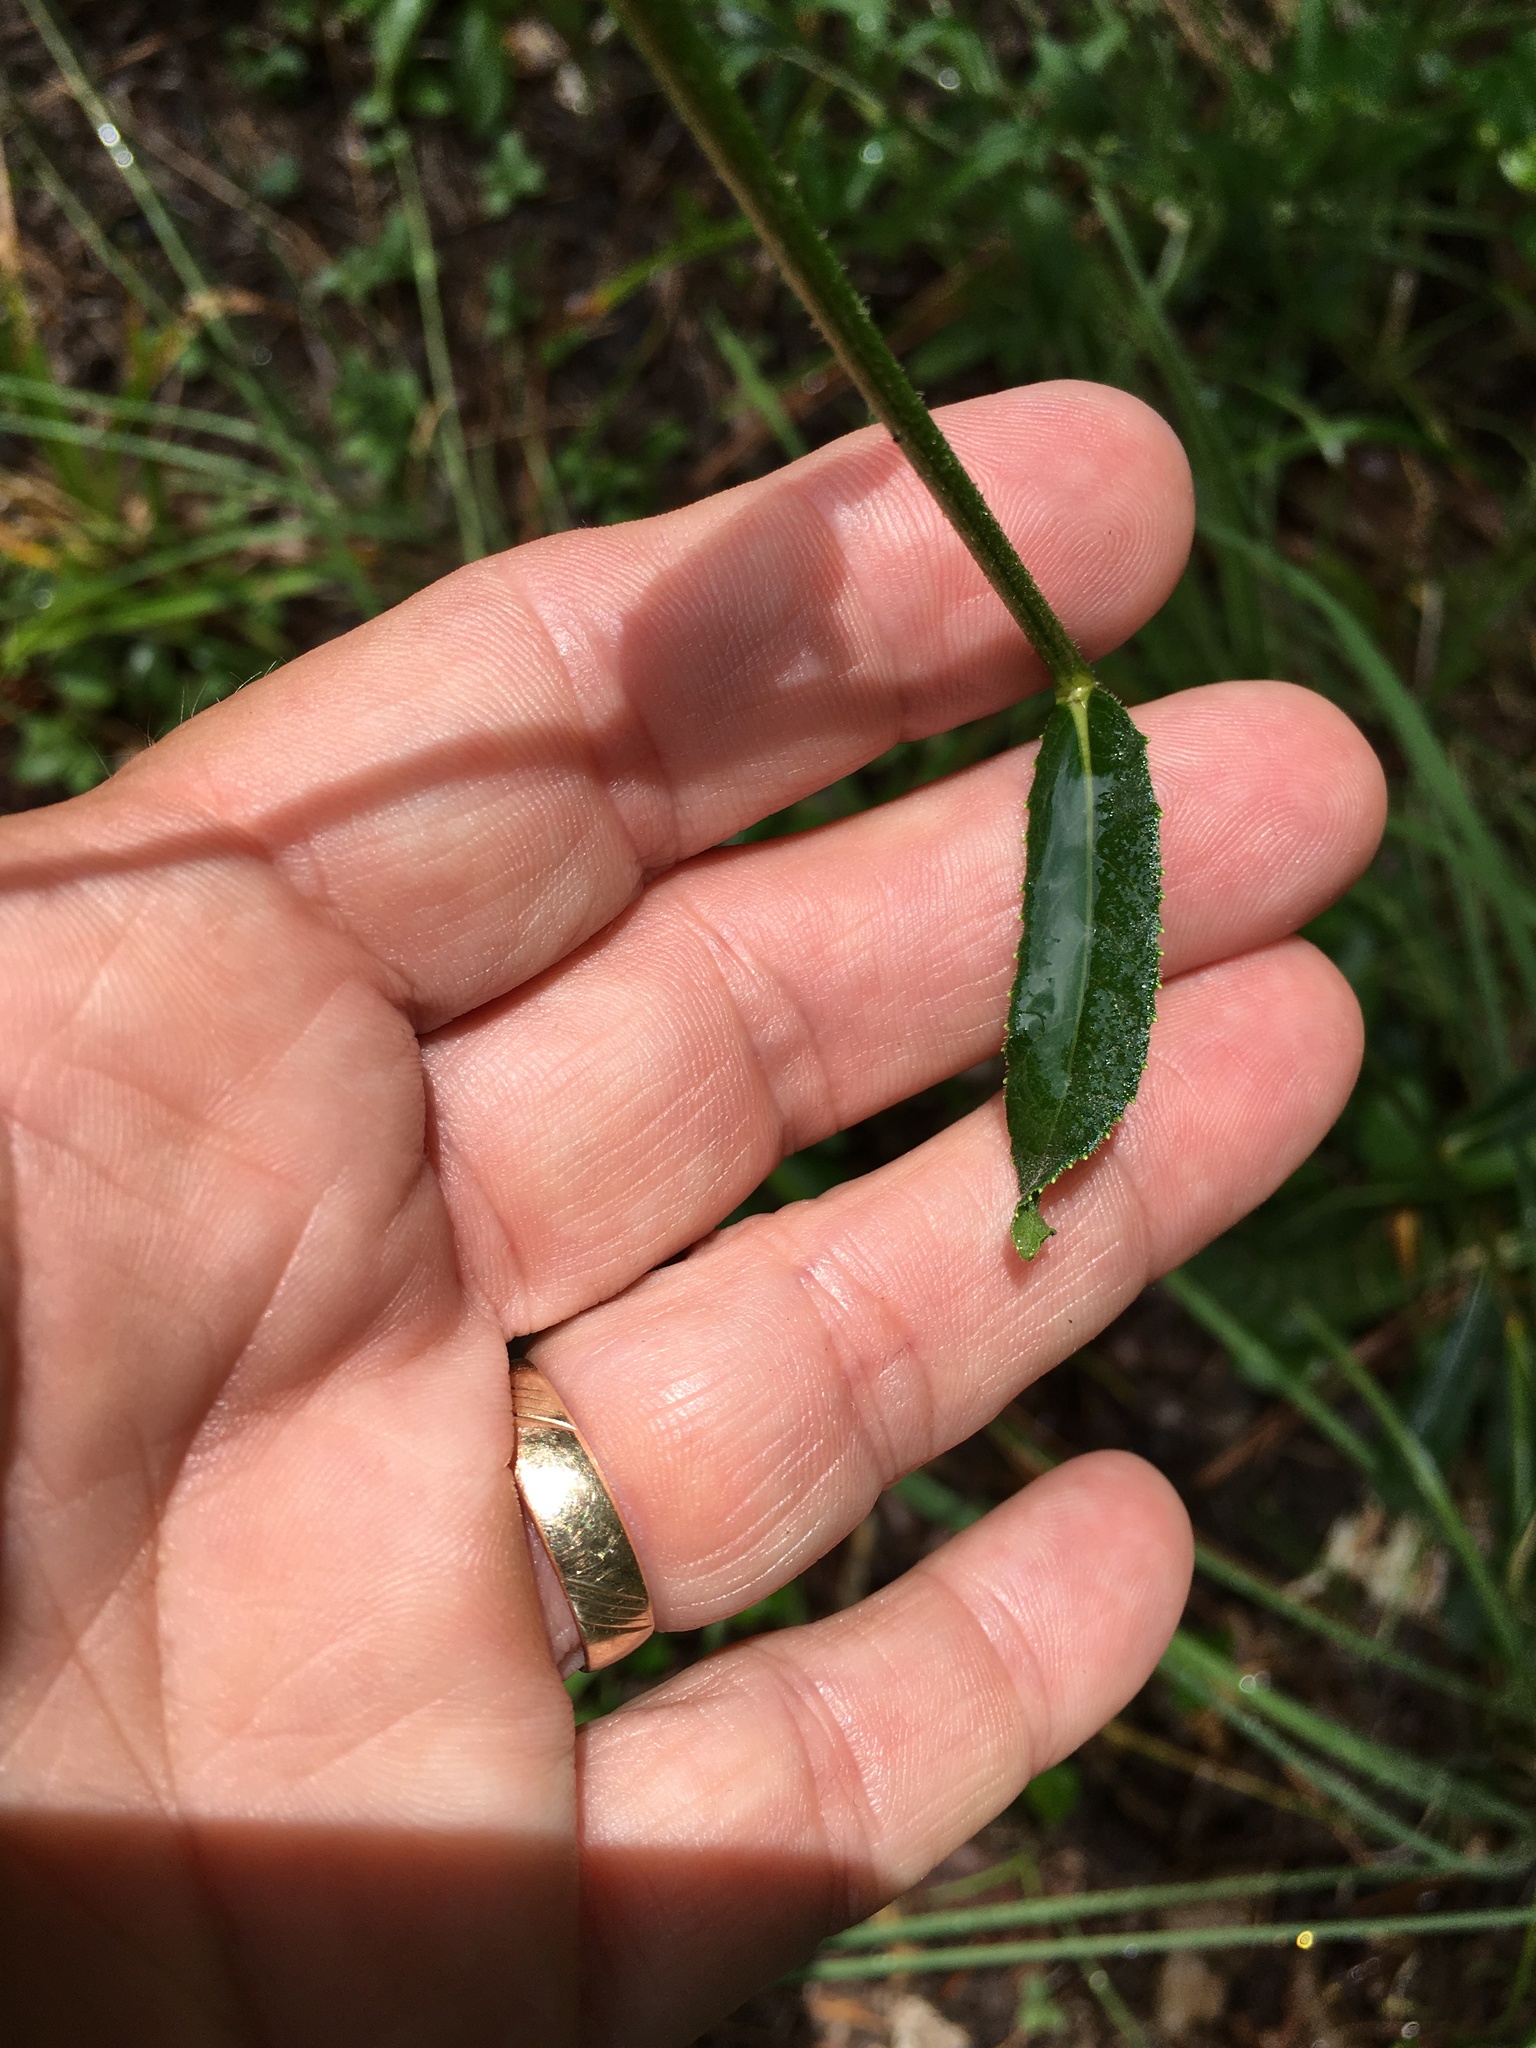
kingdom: Plantae
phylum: Tracheophyta
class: Magnoliopsida
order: Asterales
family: Asteraceae
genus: Vernonia
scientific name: Vernonia acaulis
